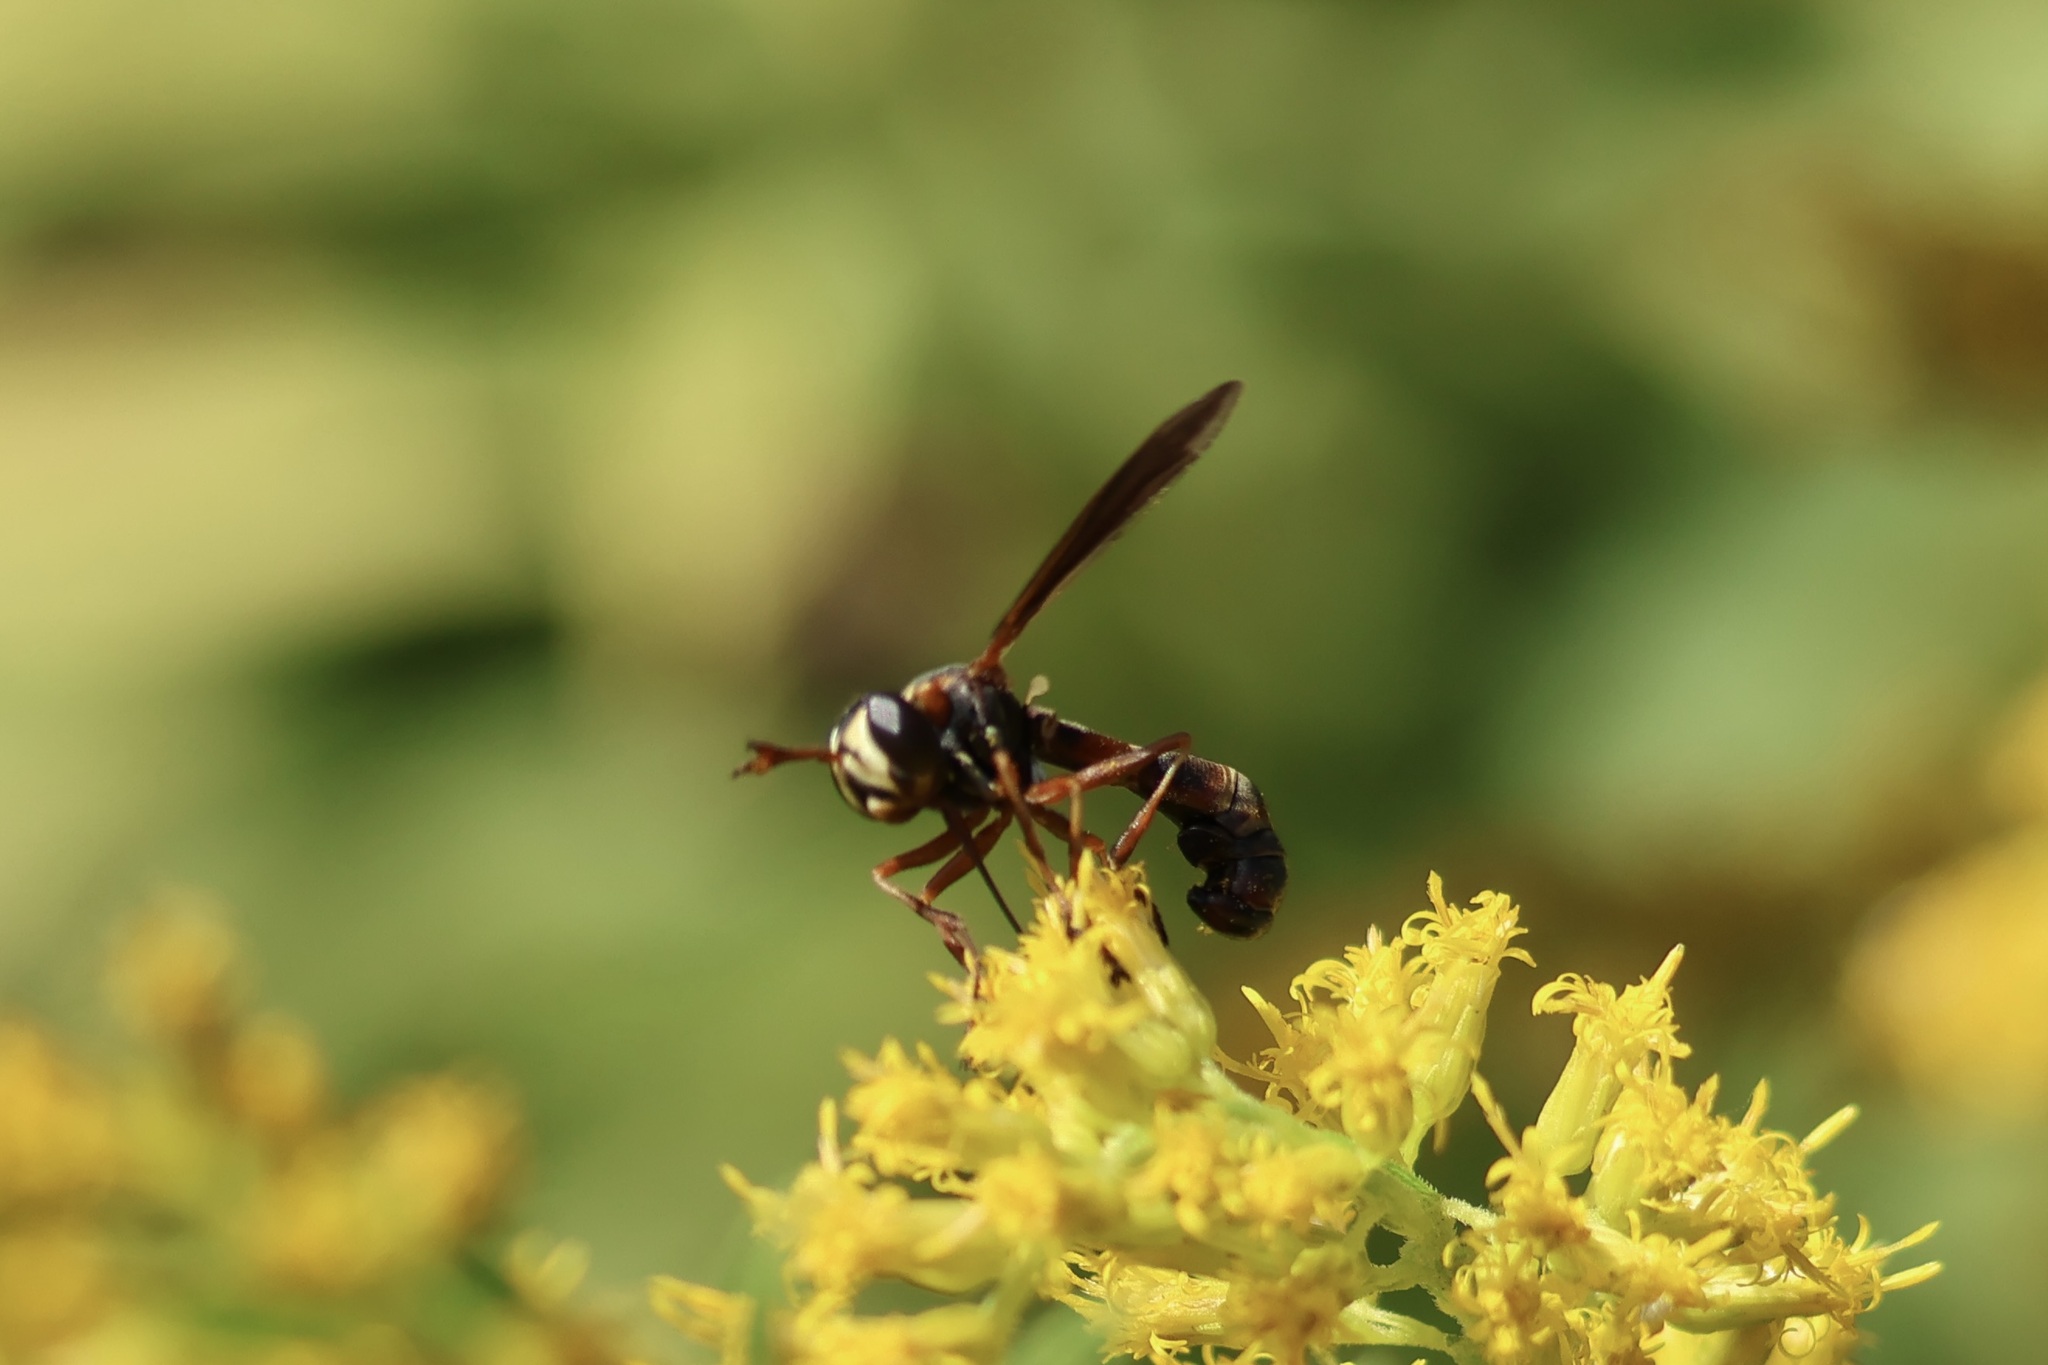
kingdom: Animalia
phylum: Arthropoda
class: Insecta
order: Diptera
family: Conopidae
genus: Physocephala
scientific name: Physocephala sagittaria
